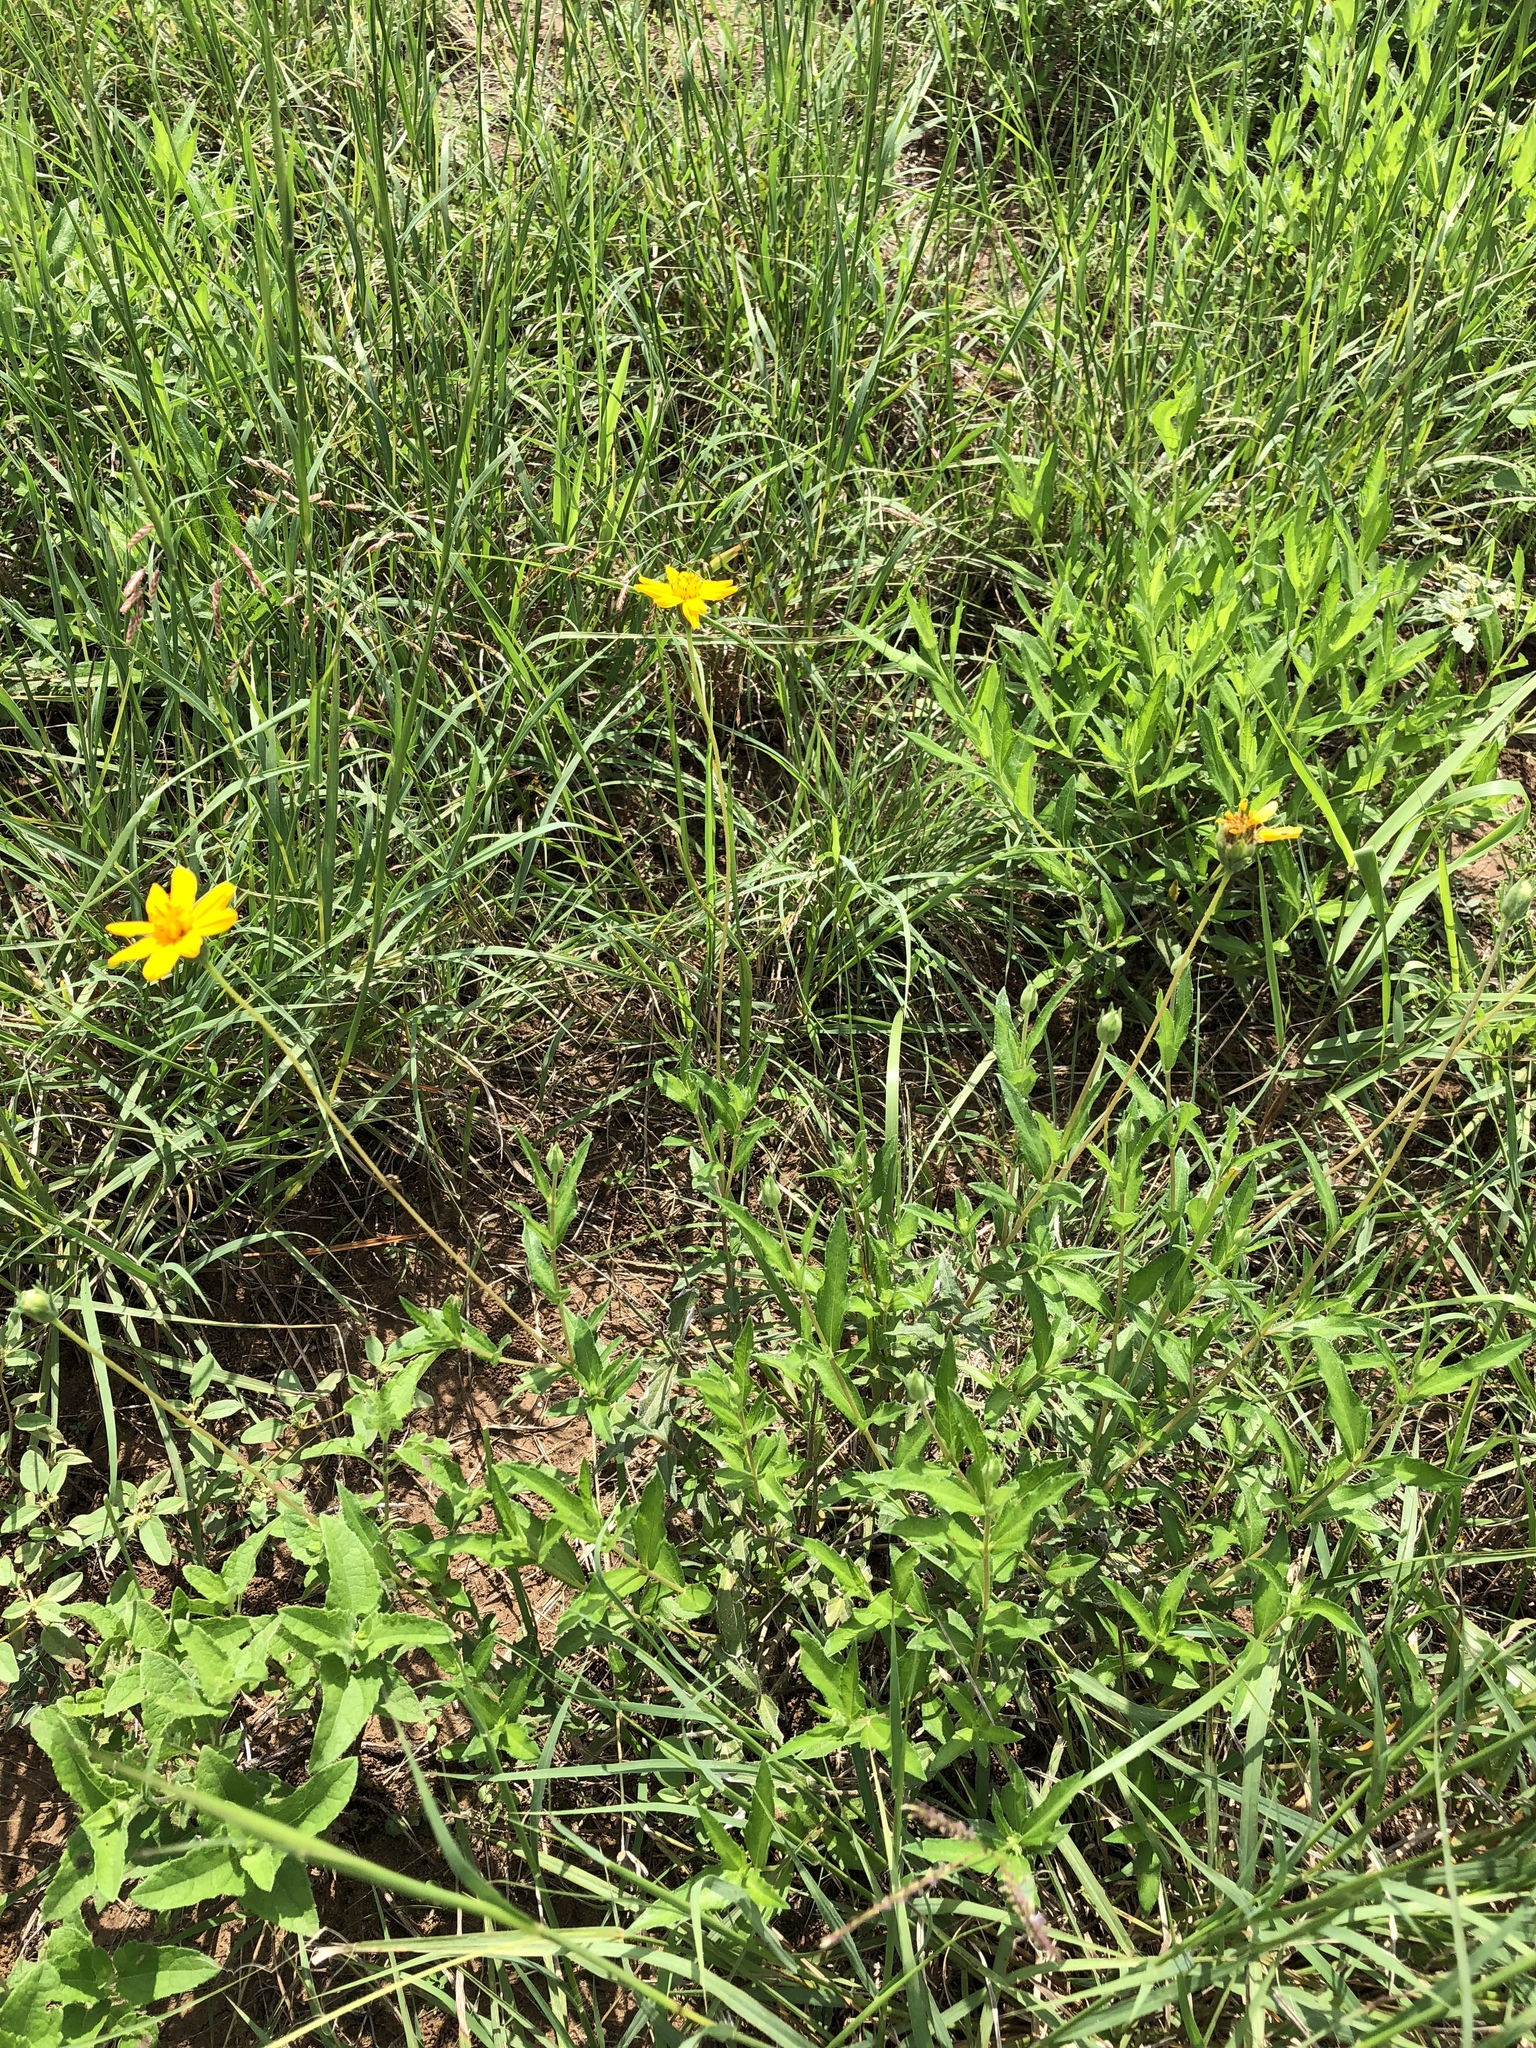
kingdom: Plantae
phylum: Tracheophyta
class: Magnoliopsida
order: Asterales
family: Asteraceae
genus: Wedelia
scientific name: Wedelia acapulcensis
